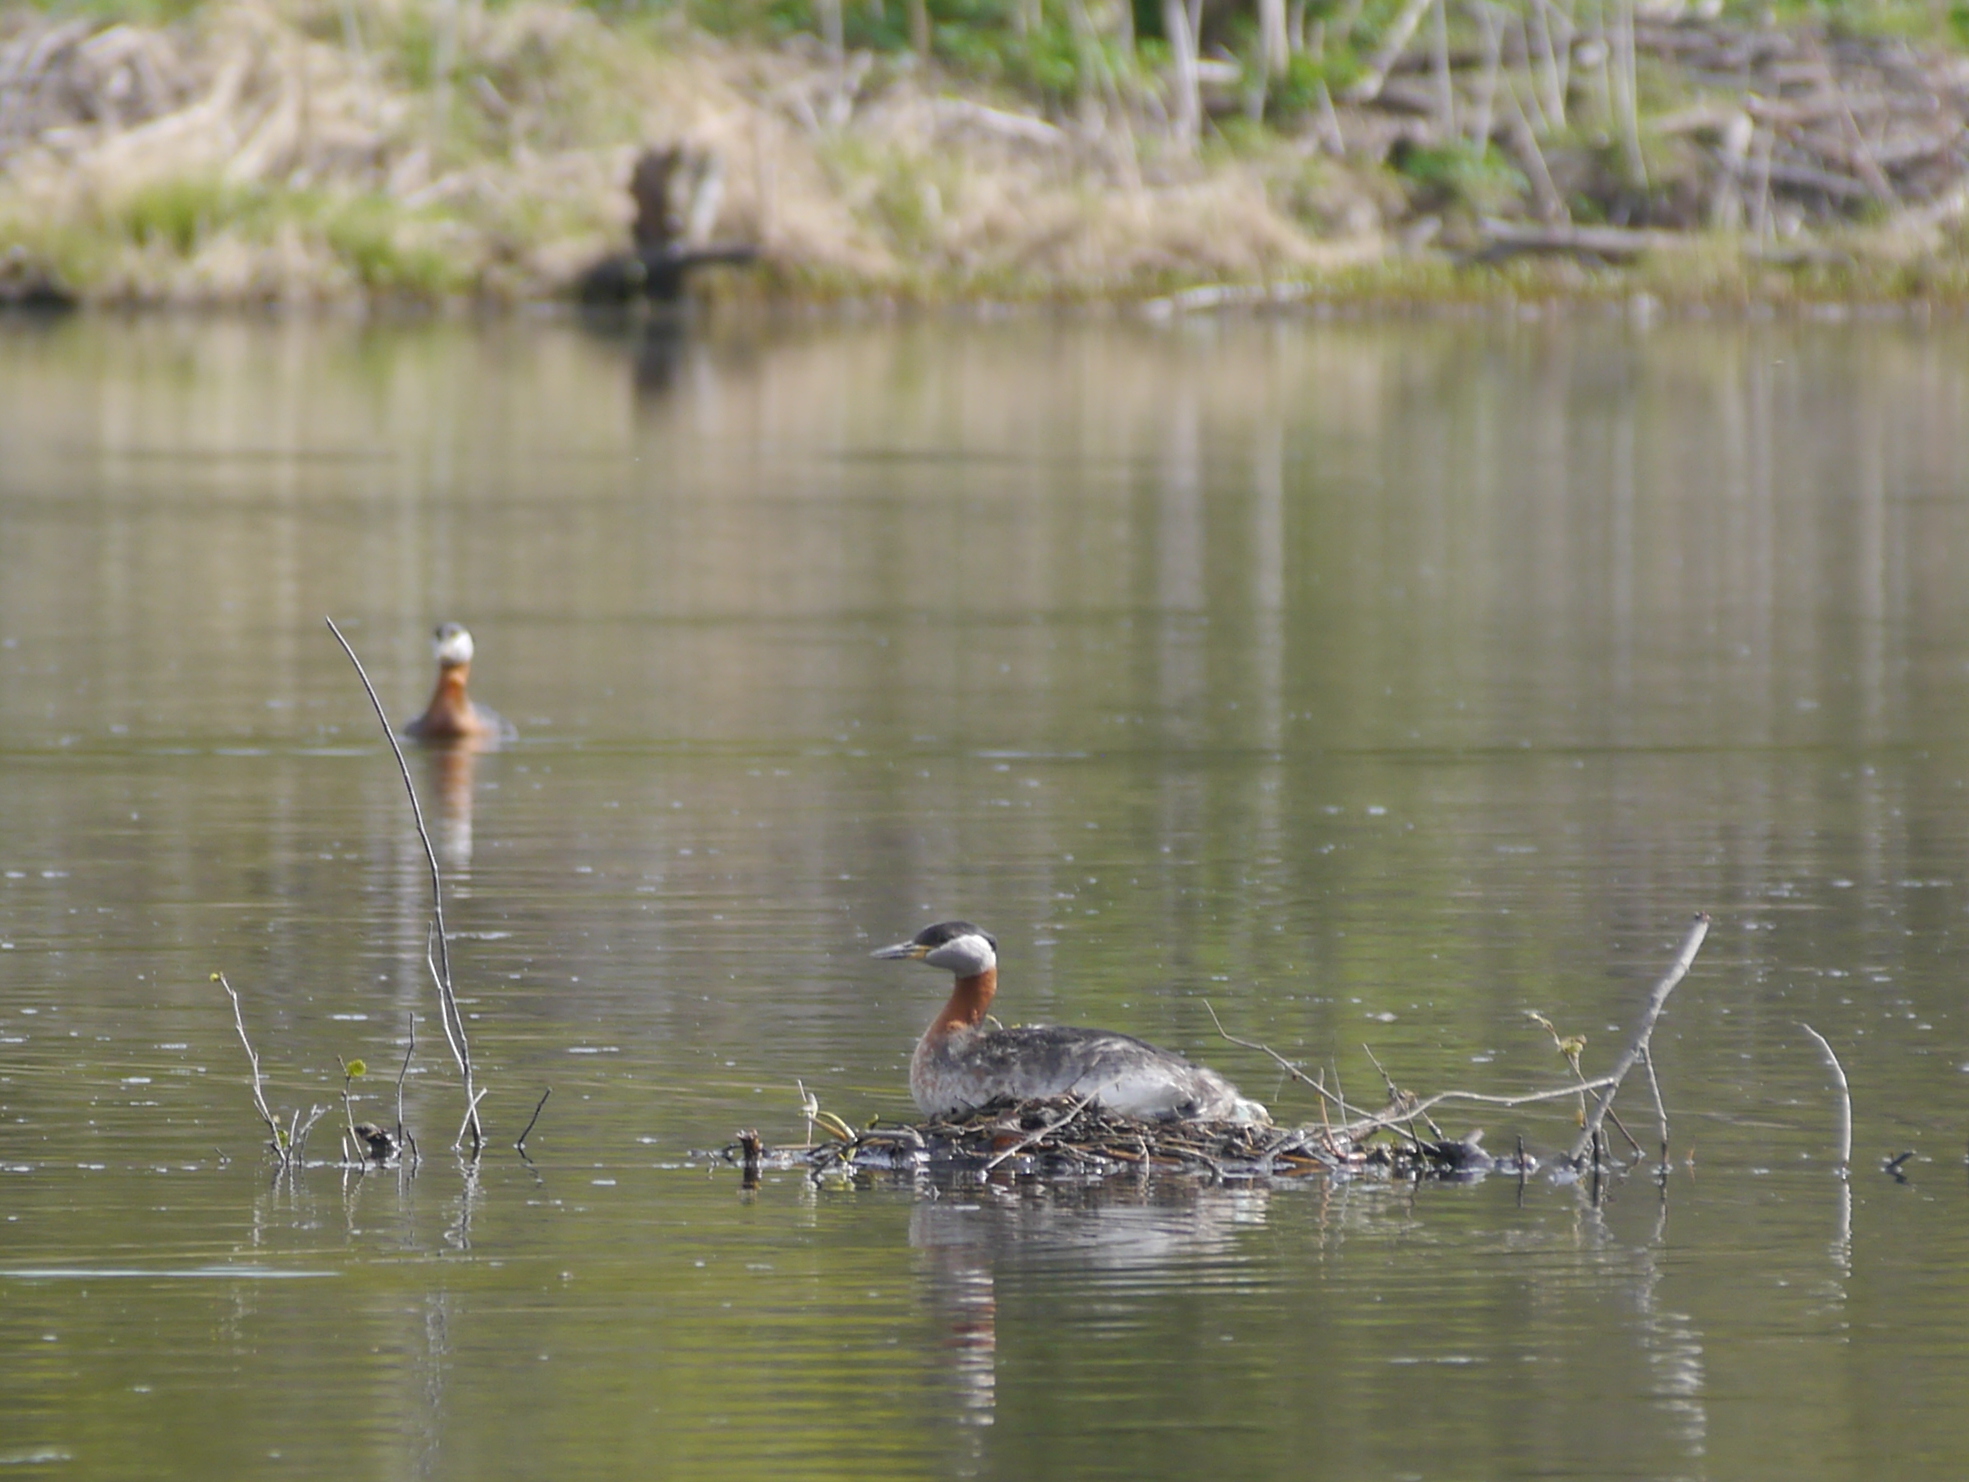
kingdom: Animalia
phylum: Chordata
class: Aves
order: Podicipediformes
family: Podicipedidae
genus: Podiceps
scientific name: Podiceps grisegena
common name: Red-necked grebe
